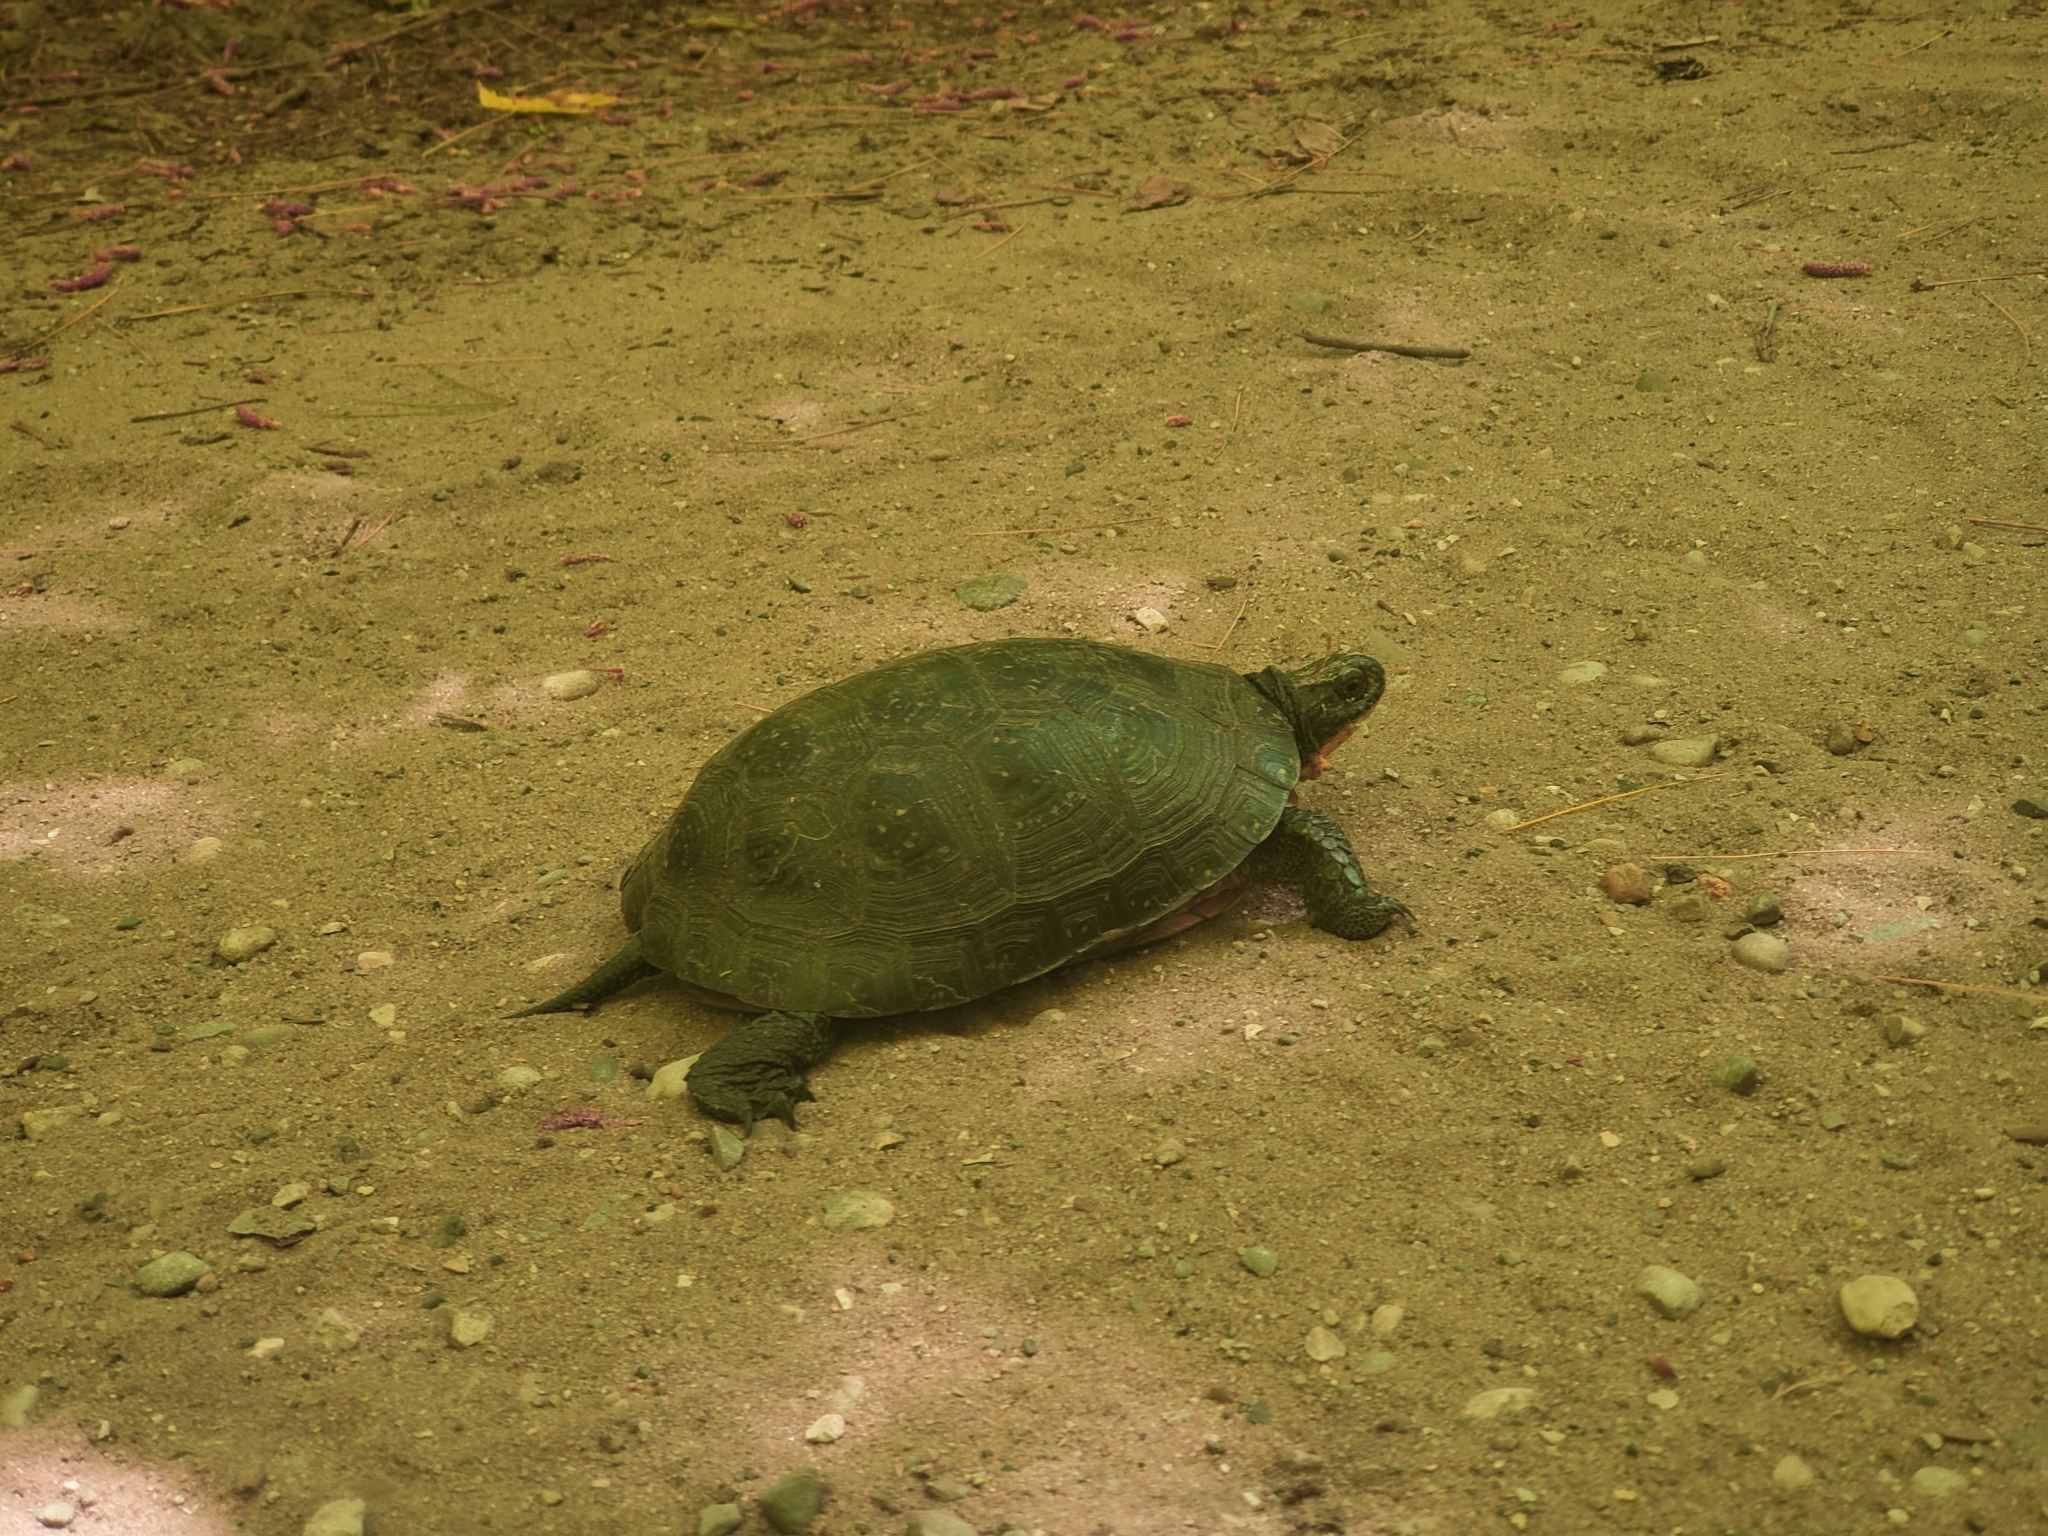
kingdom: Animalia
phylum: Chordata
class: Testudines
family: Emydidae
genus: Emys
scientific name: Emys blandingii
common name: Blanding's turtle
